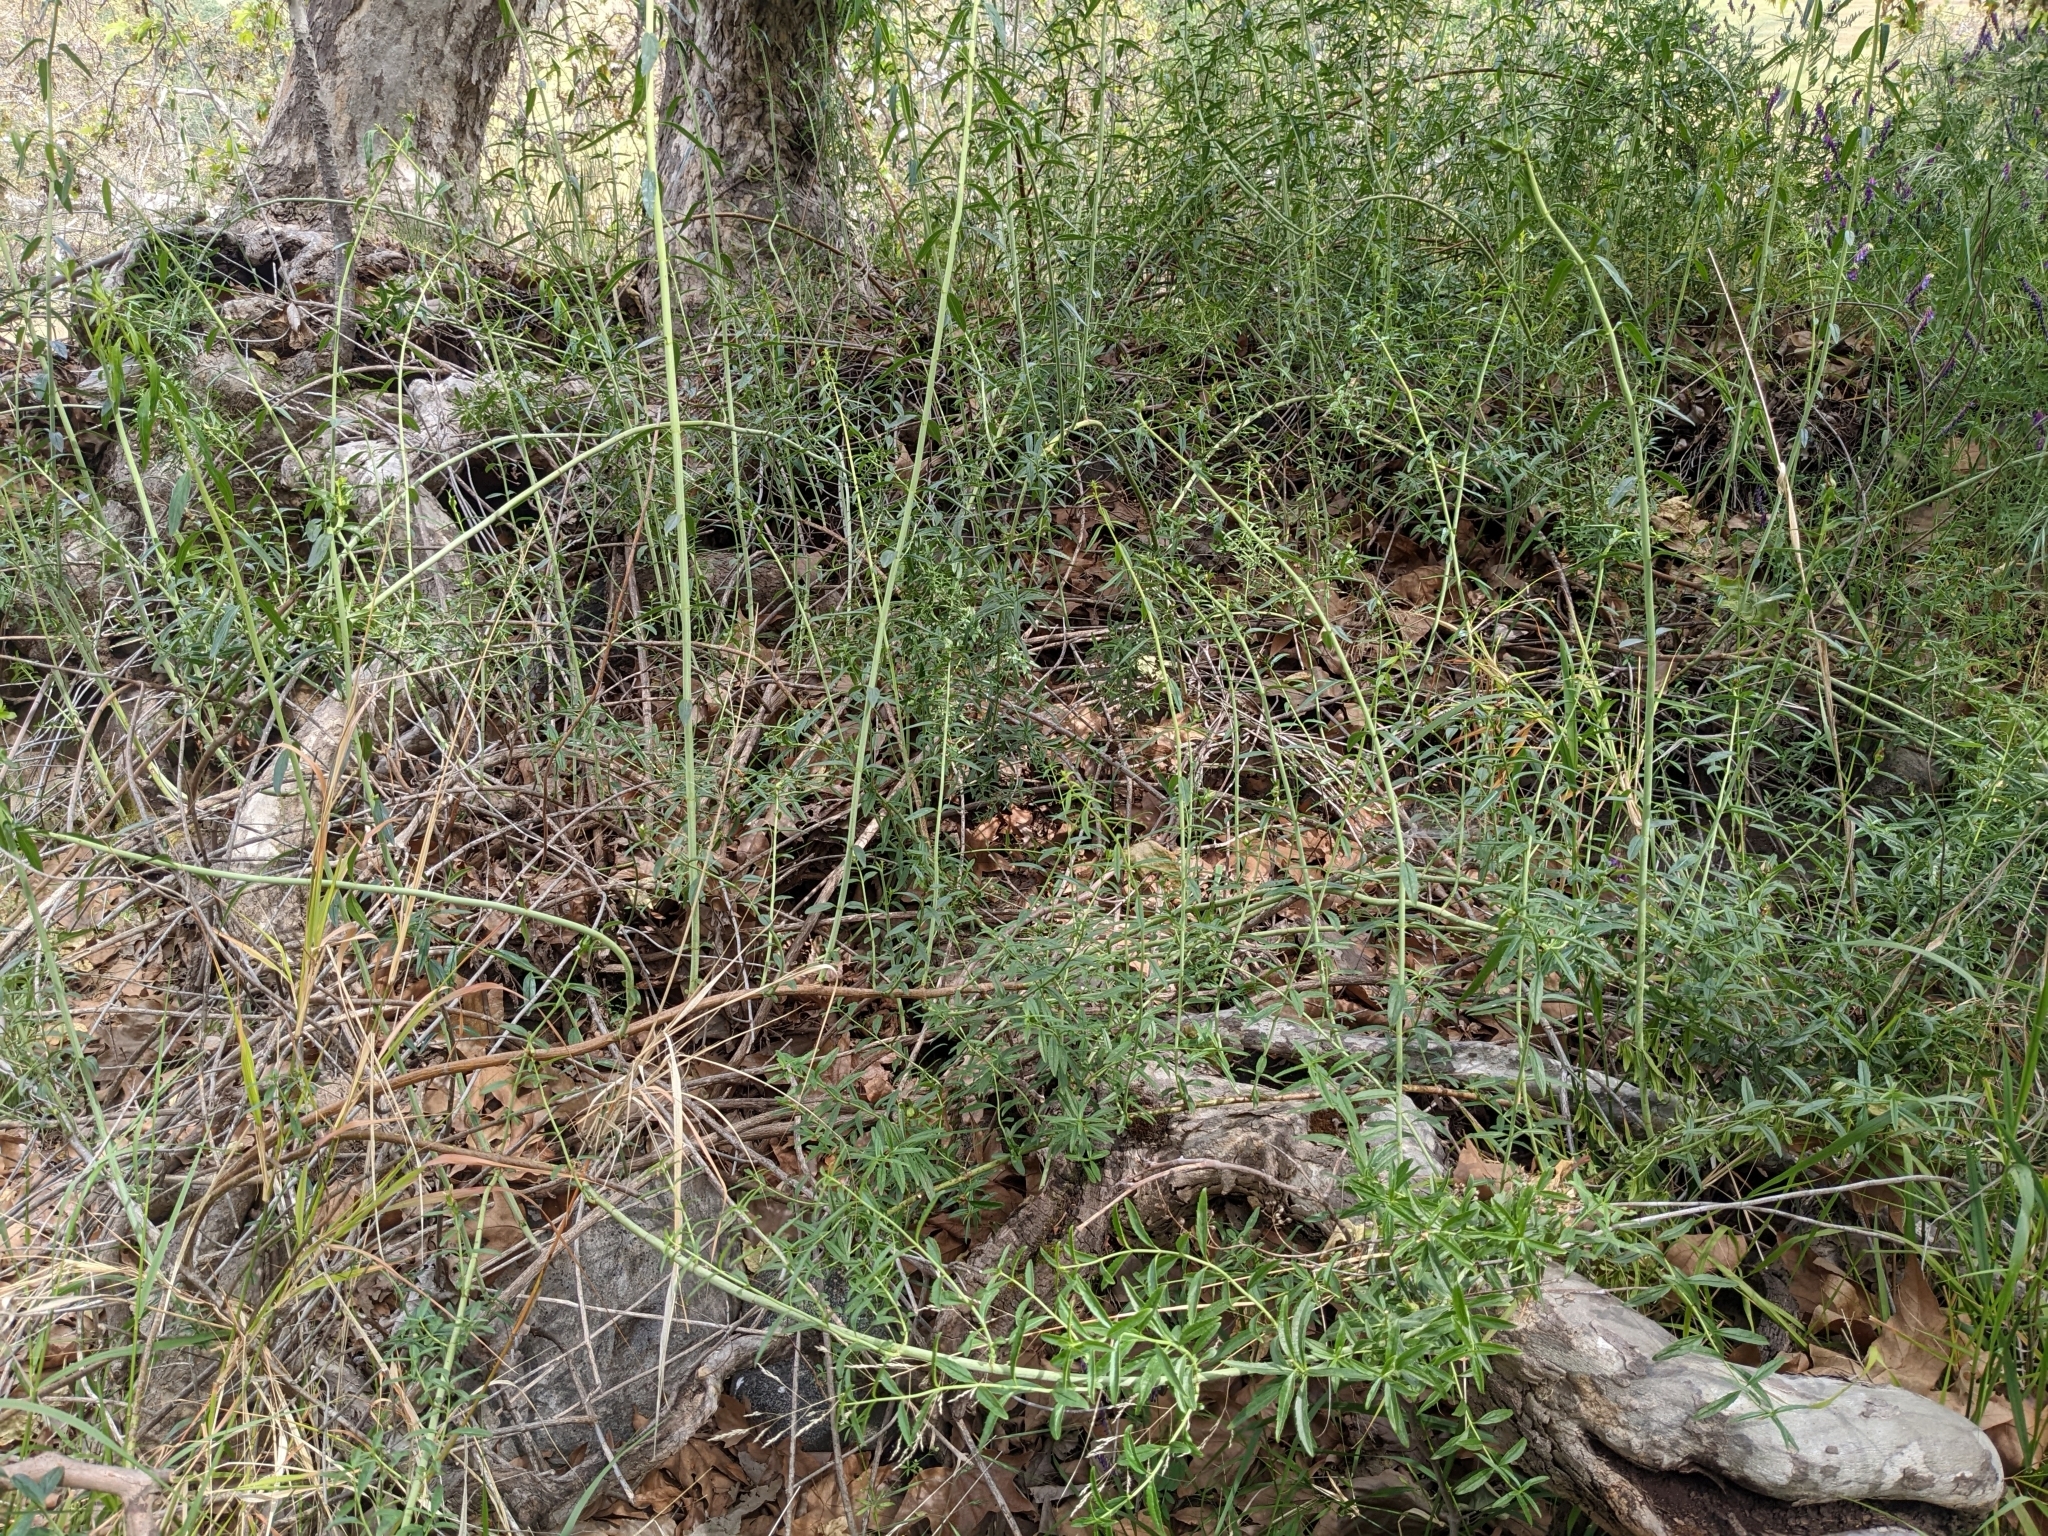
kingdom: Plantae
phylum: Tracheophyta
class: Magnoliopsida
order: Lamiales
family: Plantaginaceae
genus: Keckiella
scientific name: Keckiella breviflora
